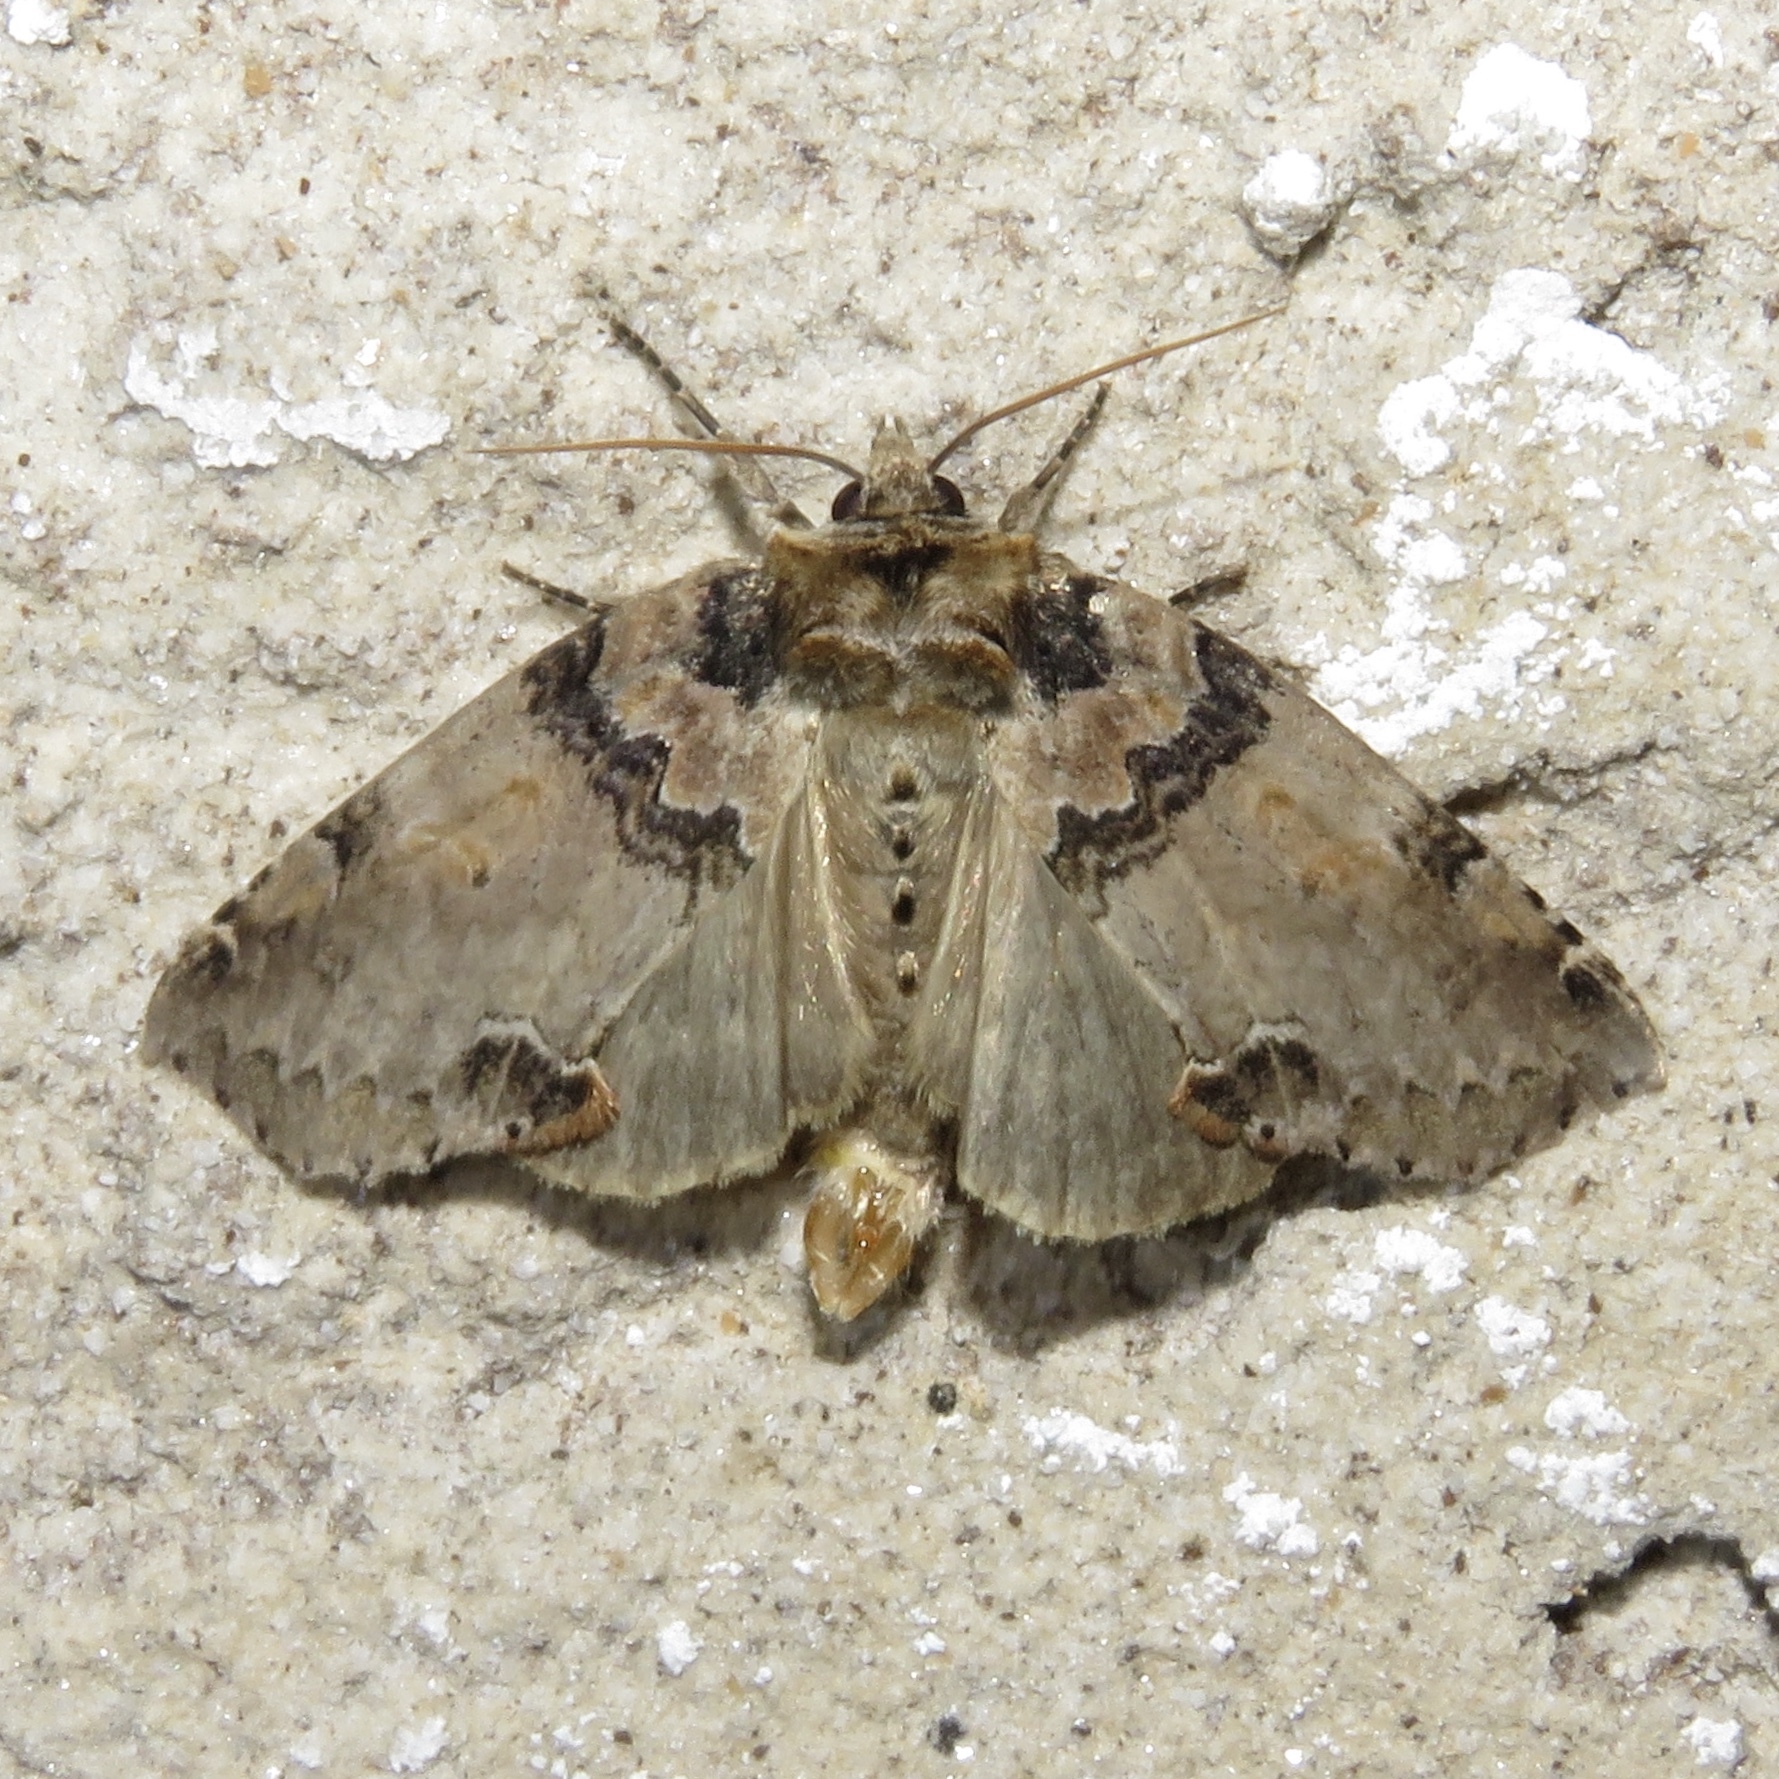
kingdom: Animalia
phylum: Arthropoda
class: Insecta
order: Lepidoptera
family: Drepanidae
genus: Pseudothyatira
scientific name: Pseudothyatira cymatophoroides
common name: Tufted thyatirid moth
